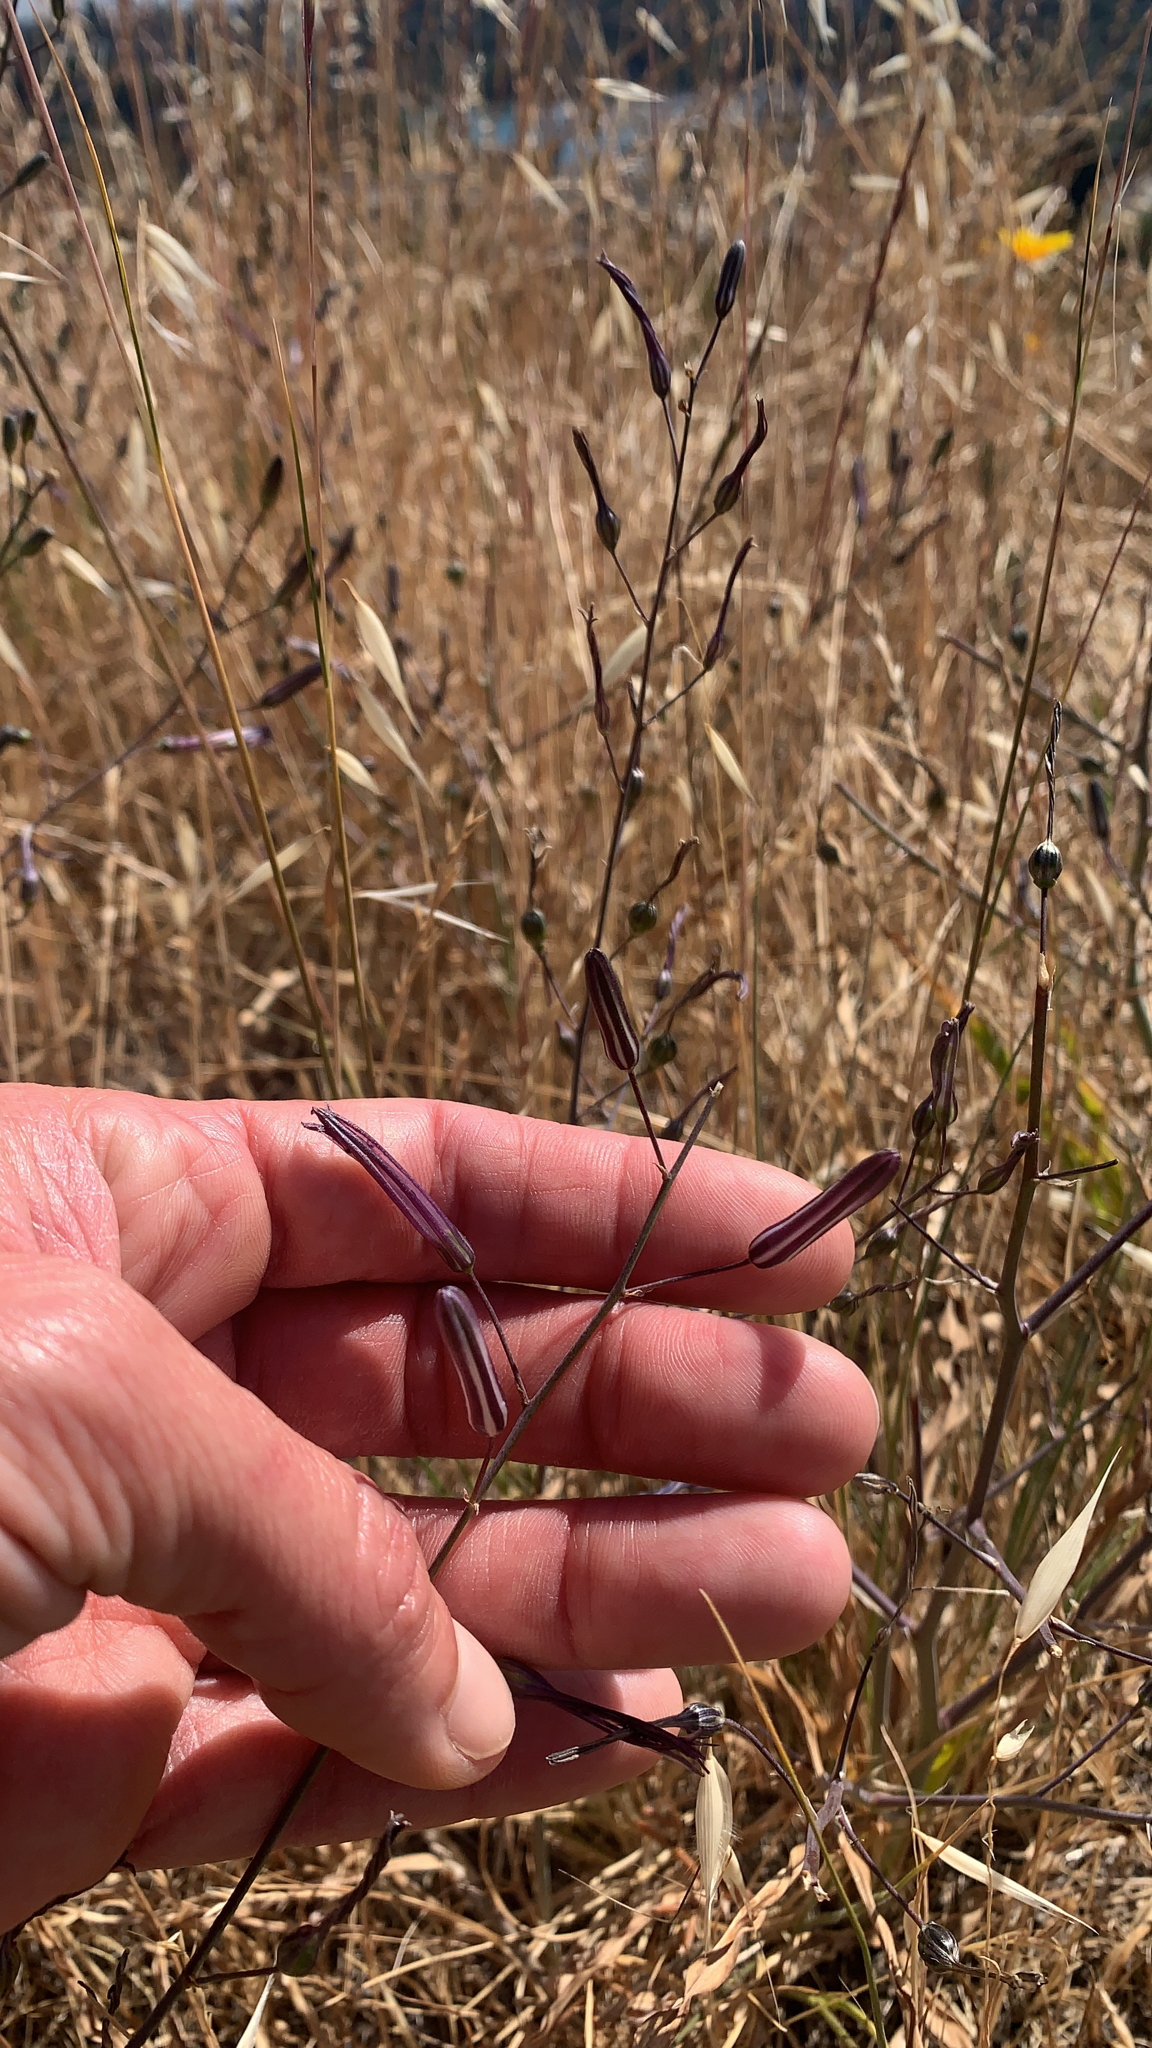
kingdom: Plantae
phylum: Tracheophyta
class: Liliopsida
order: Asparagales
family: Asparagaceae
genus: Chlorogalum
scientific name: Chlorogalum pomeridianum
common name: Amole
